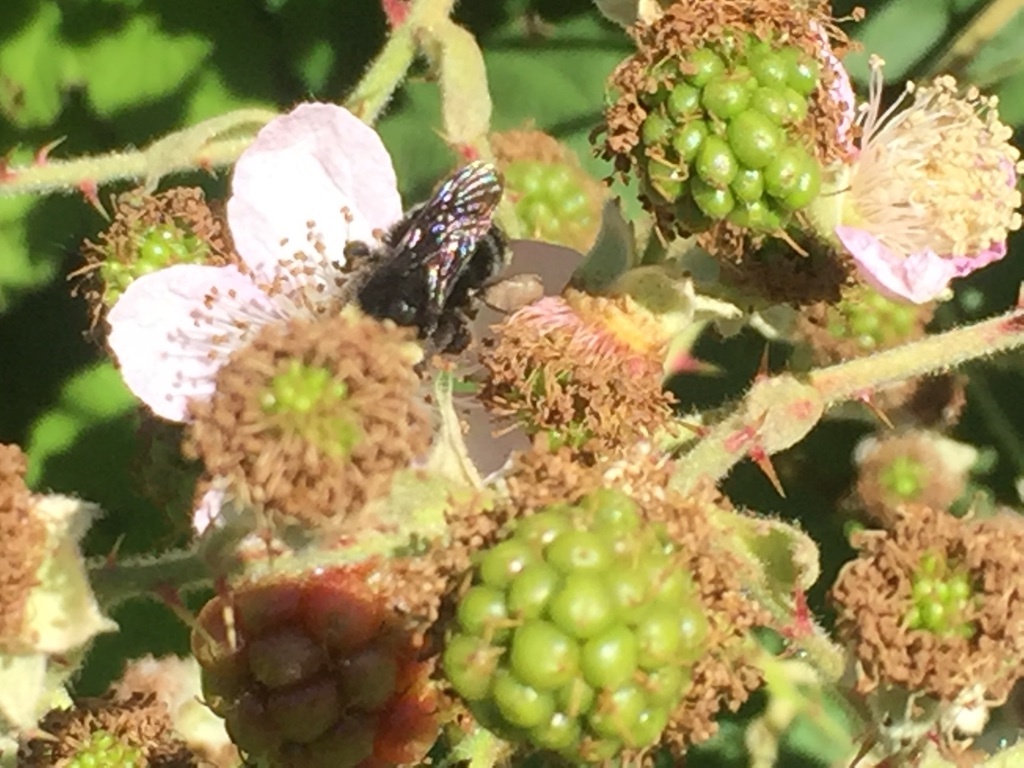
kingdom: Animalia
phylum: Arthropoda
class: Insecta
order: Hymenoptera
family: Apidae
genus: Bombus
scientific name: Bombus
